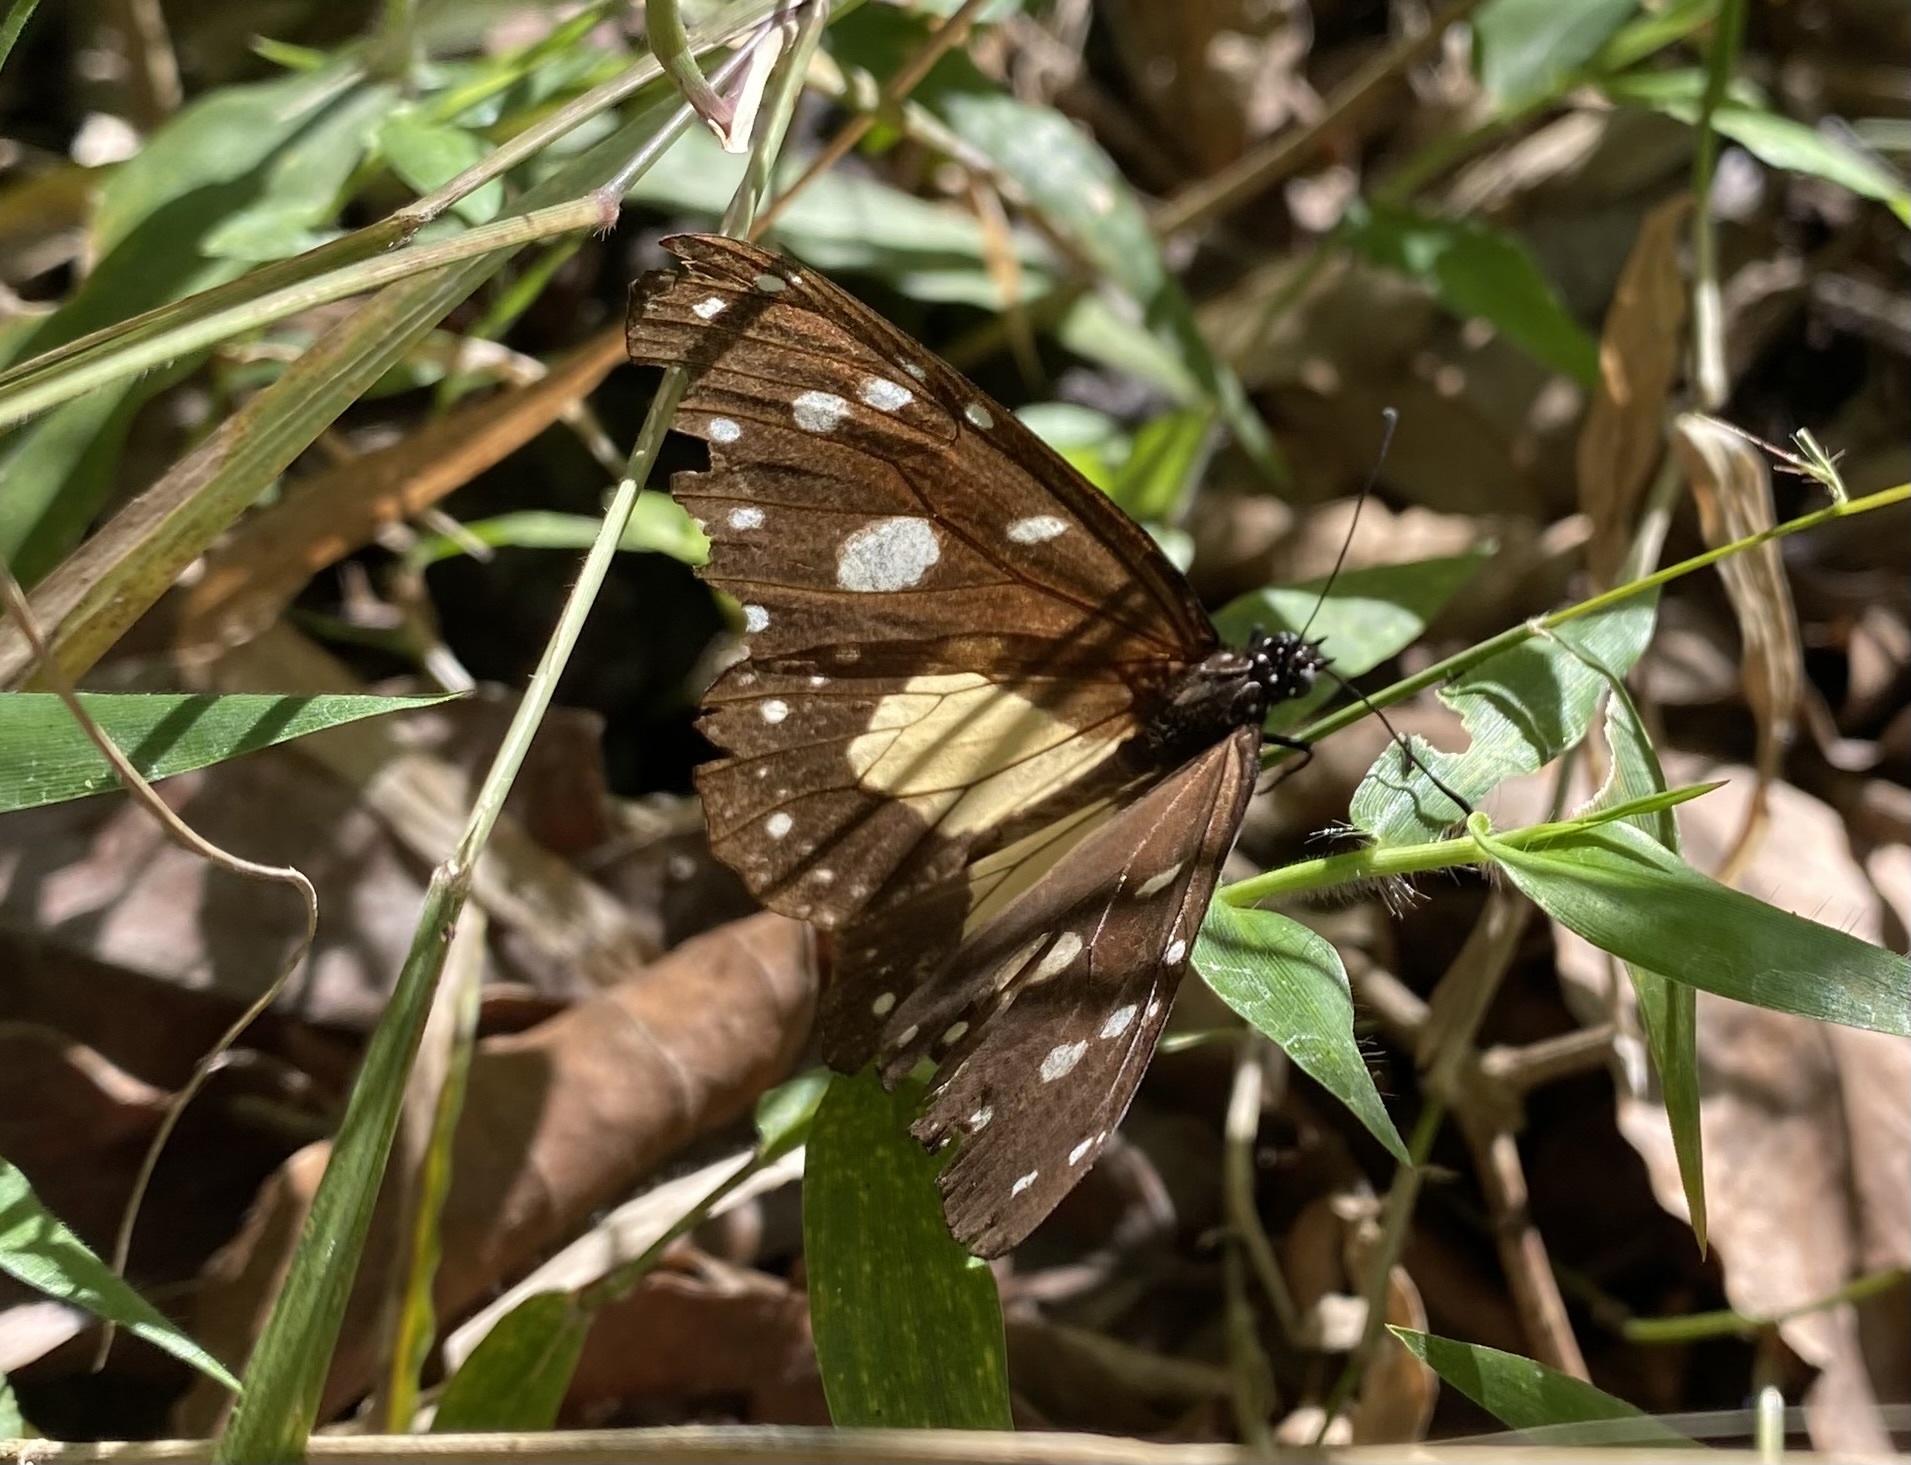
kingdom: Animalia
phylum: Arthropoda
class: Insecta
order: Lepidoptera
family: Nymphalidae
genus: Amauris
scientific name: Amauris albimaculata
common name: Layman
